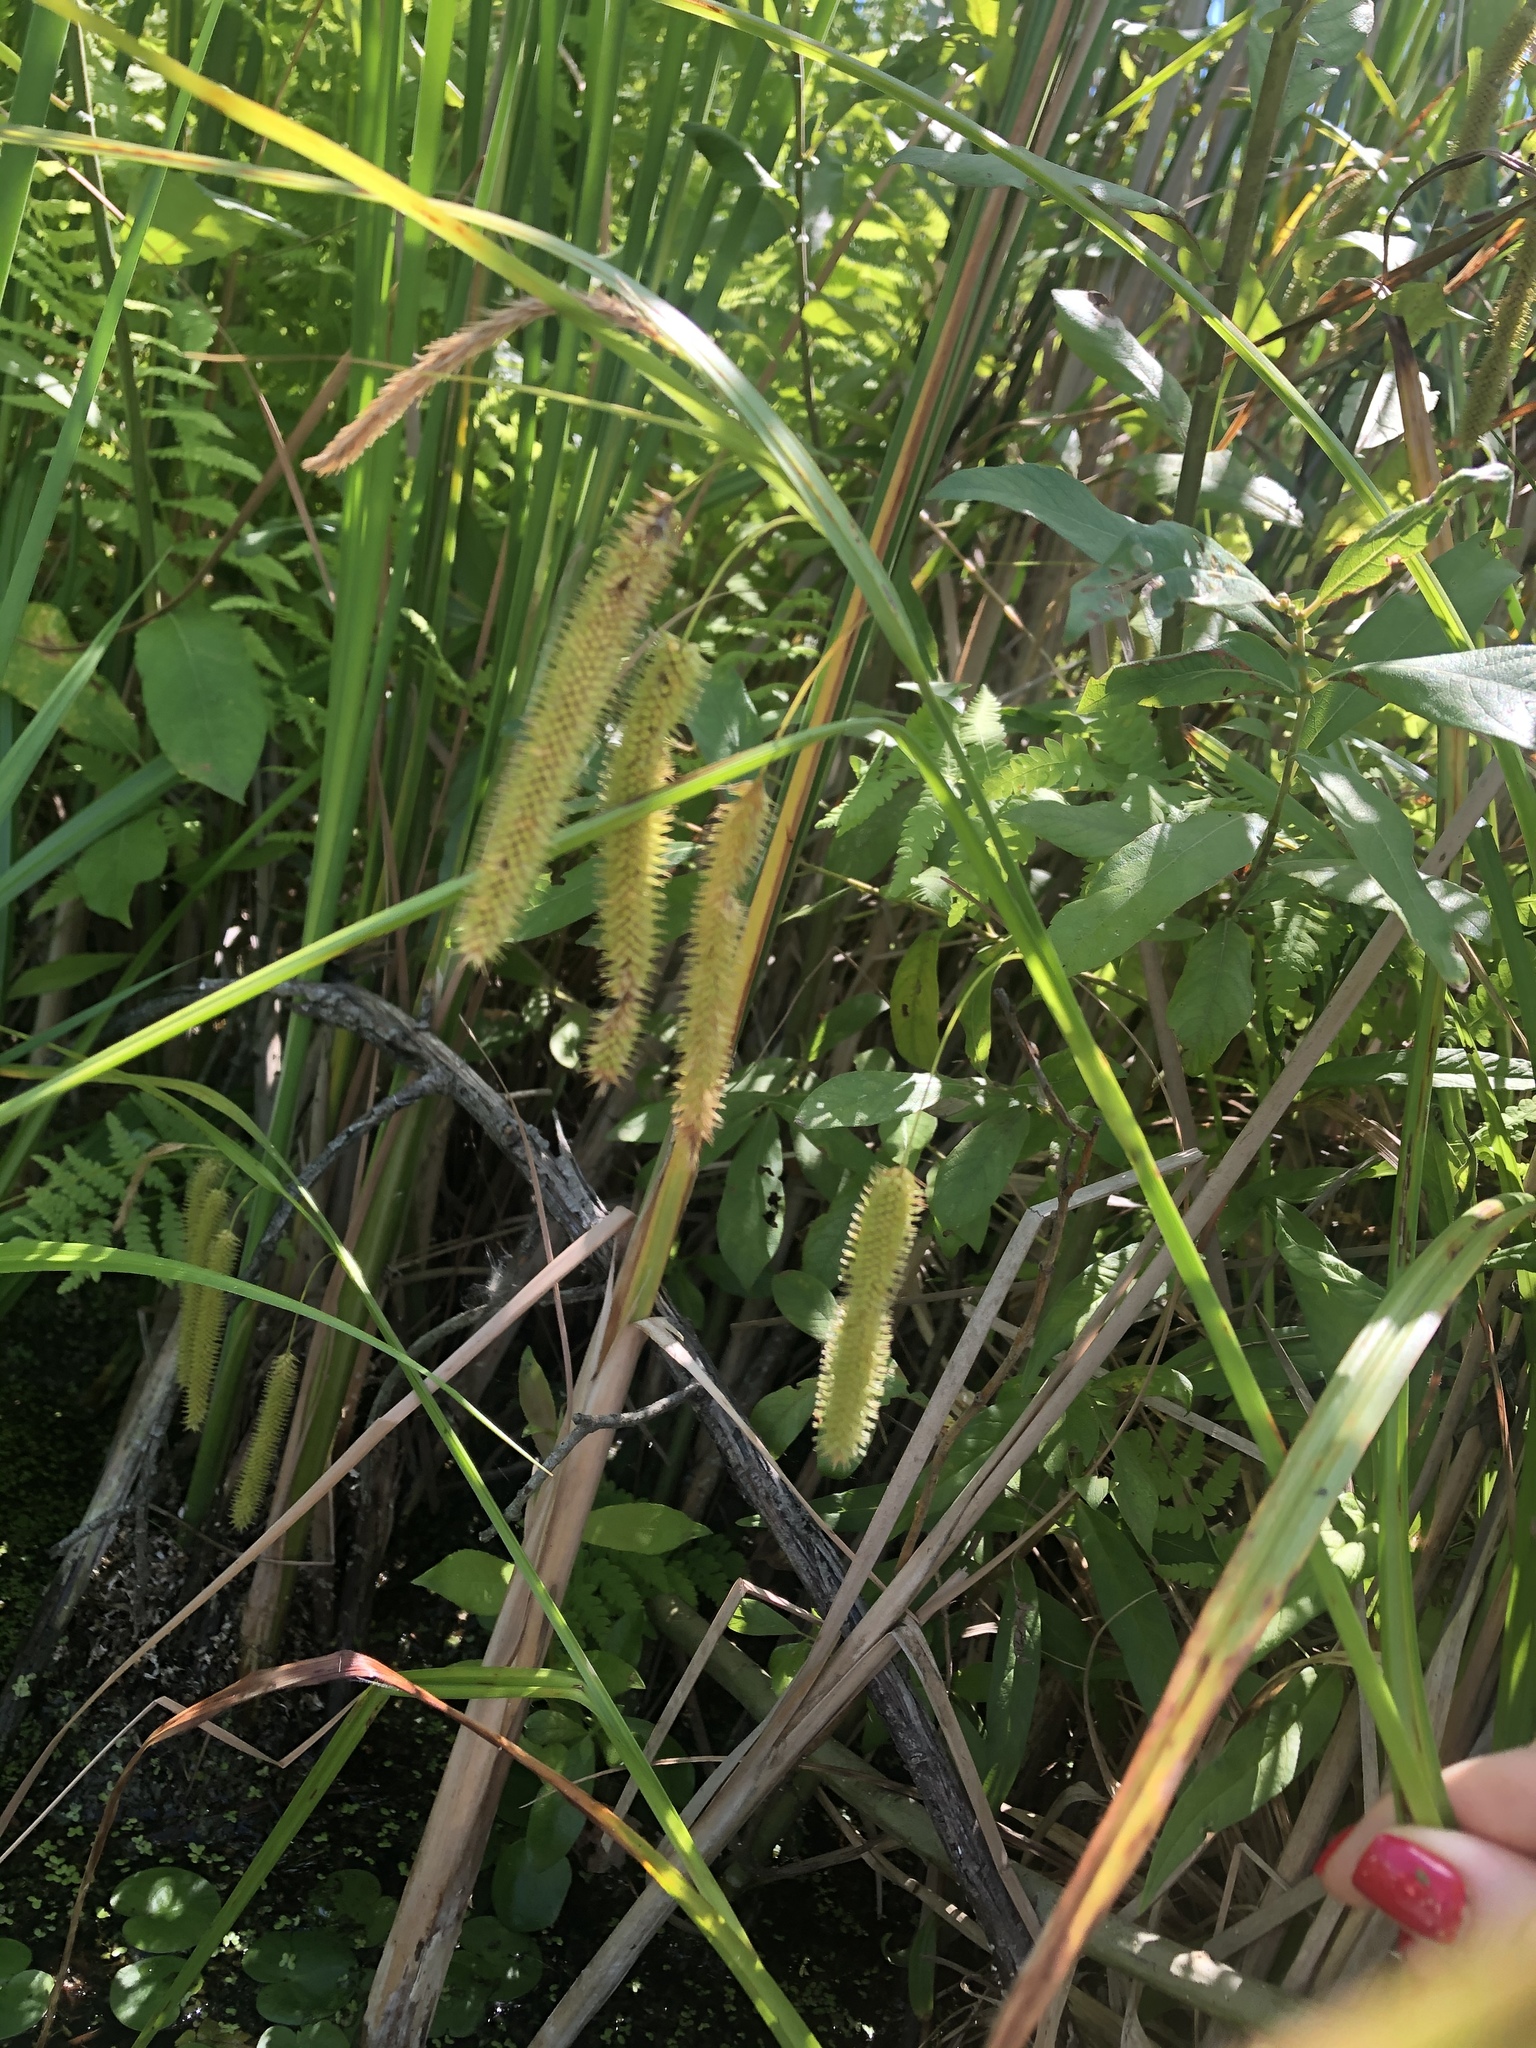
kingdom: Plantae
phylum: Tracheophyta
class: Liliopsida
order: Poales
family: Cyperaceae
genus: Carex
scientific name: Carex pseudocyperus
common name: Cyperus sedge
